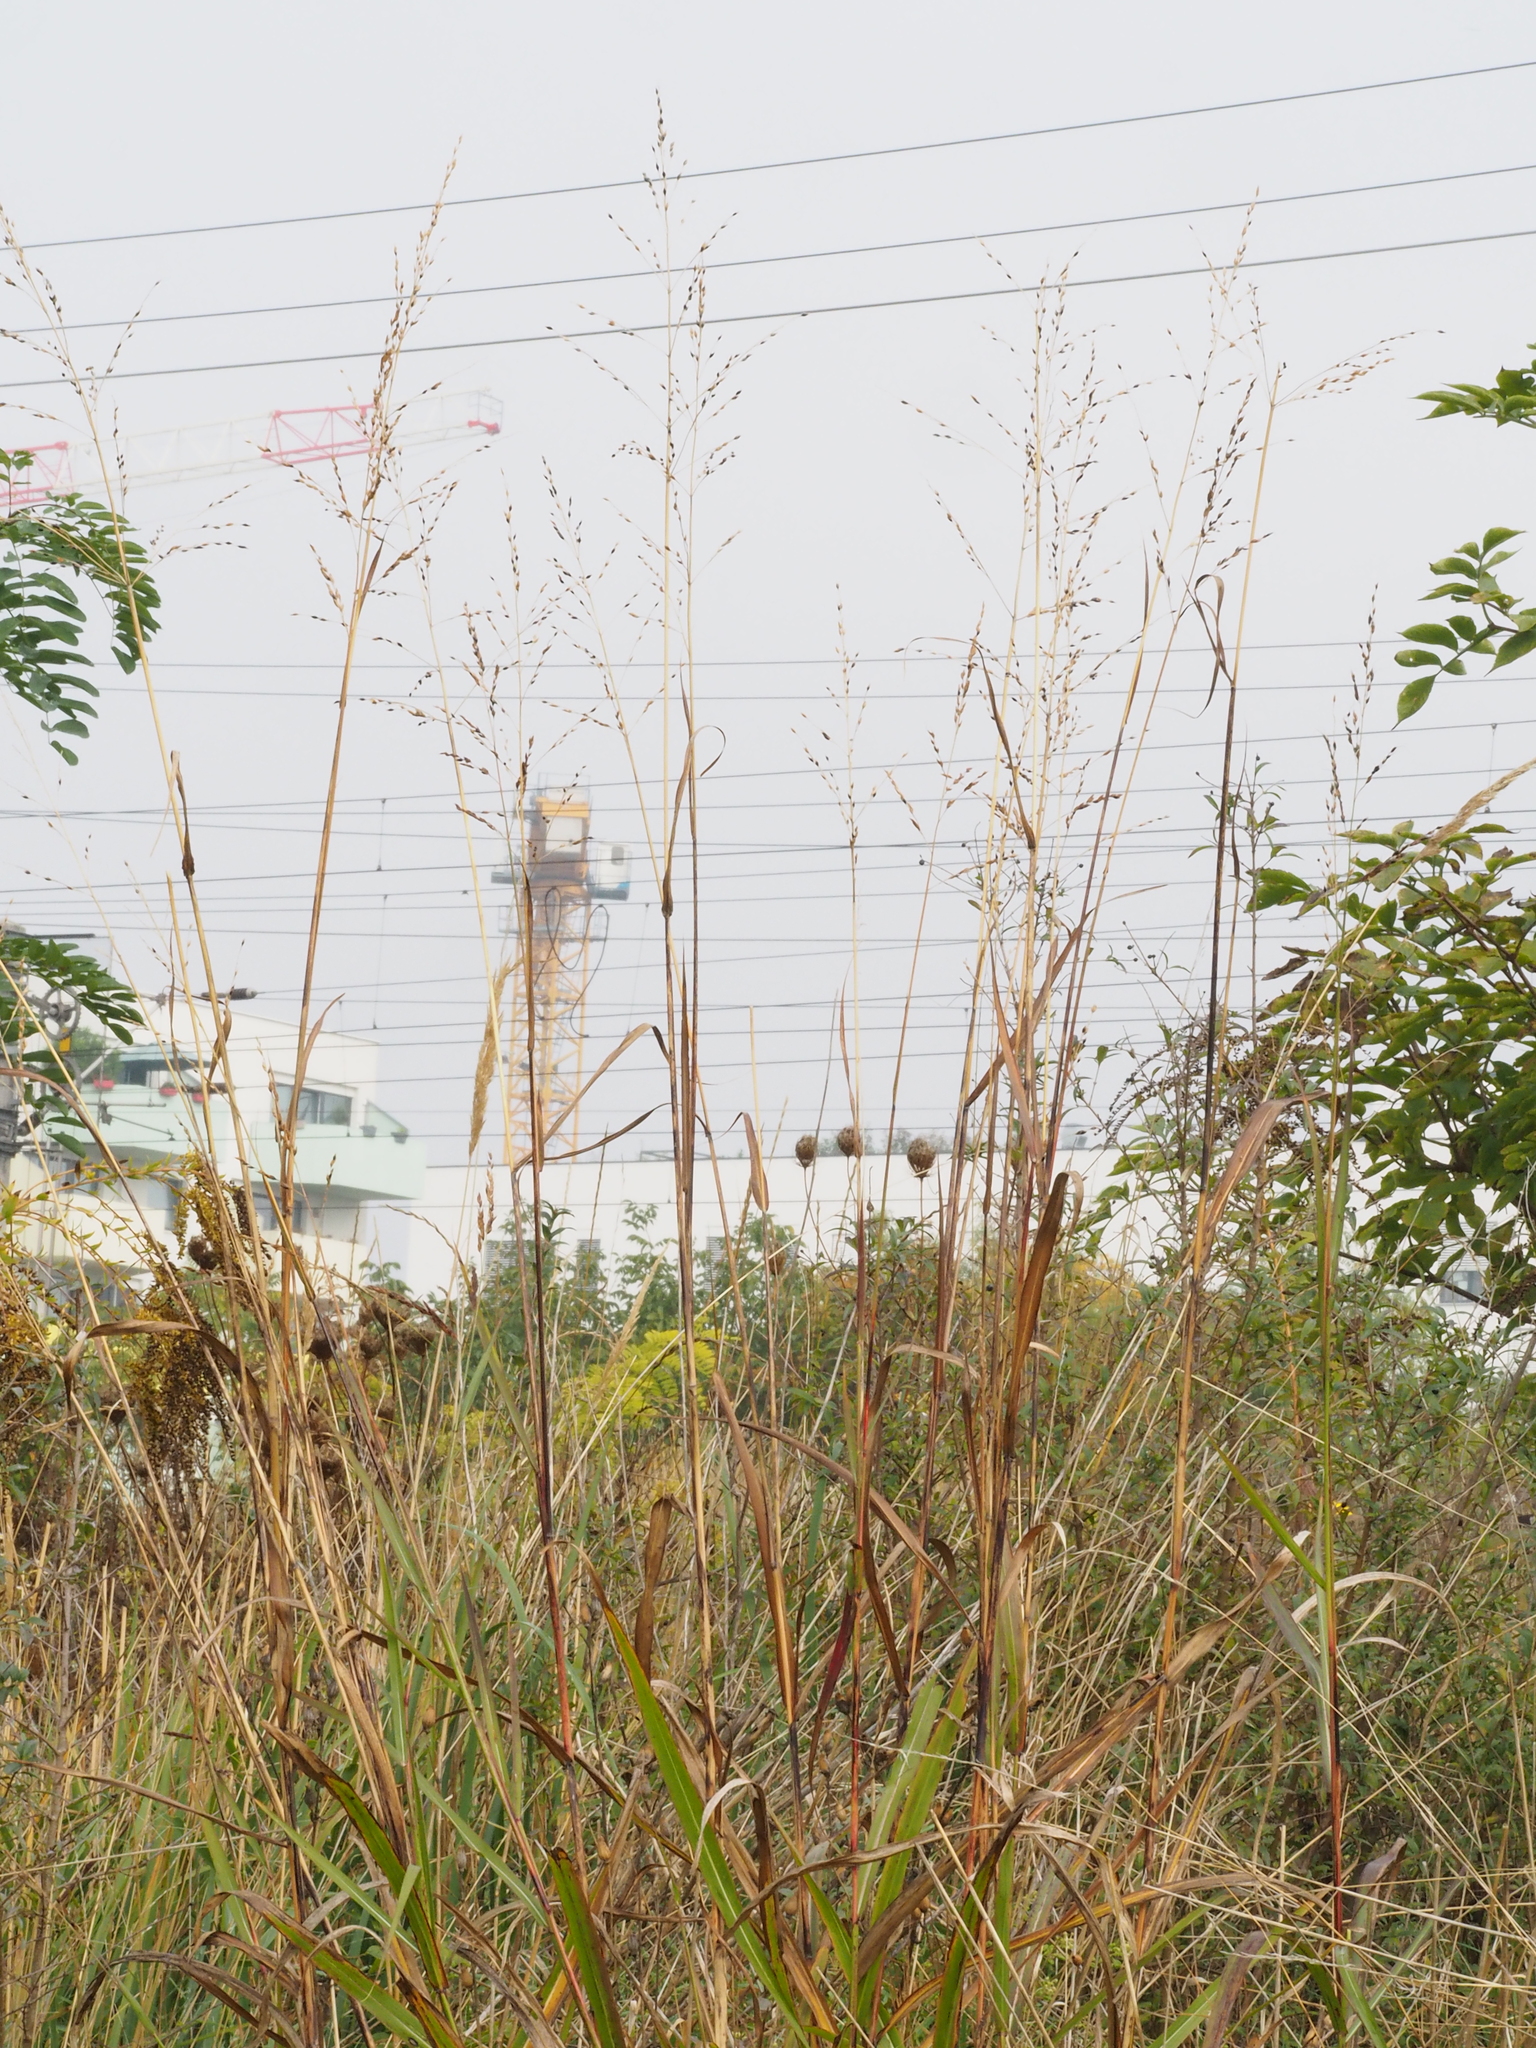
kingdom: Plantae
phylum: Tracheophyta
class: Liliopsida
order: Poales
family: Poaceae
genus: Sorghum
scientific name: Sorghum halepense
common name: Johnson-grass
